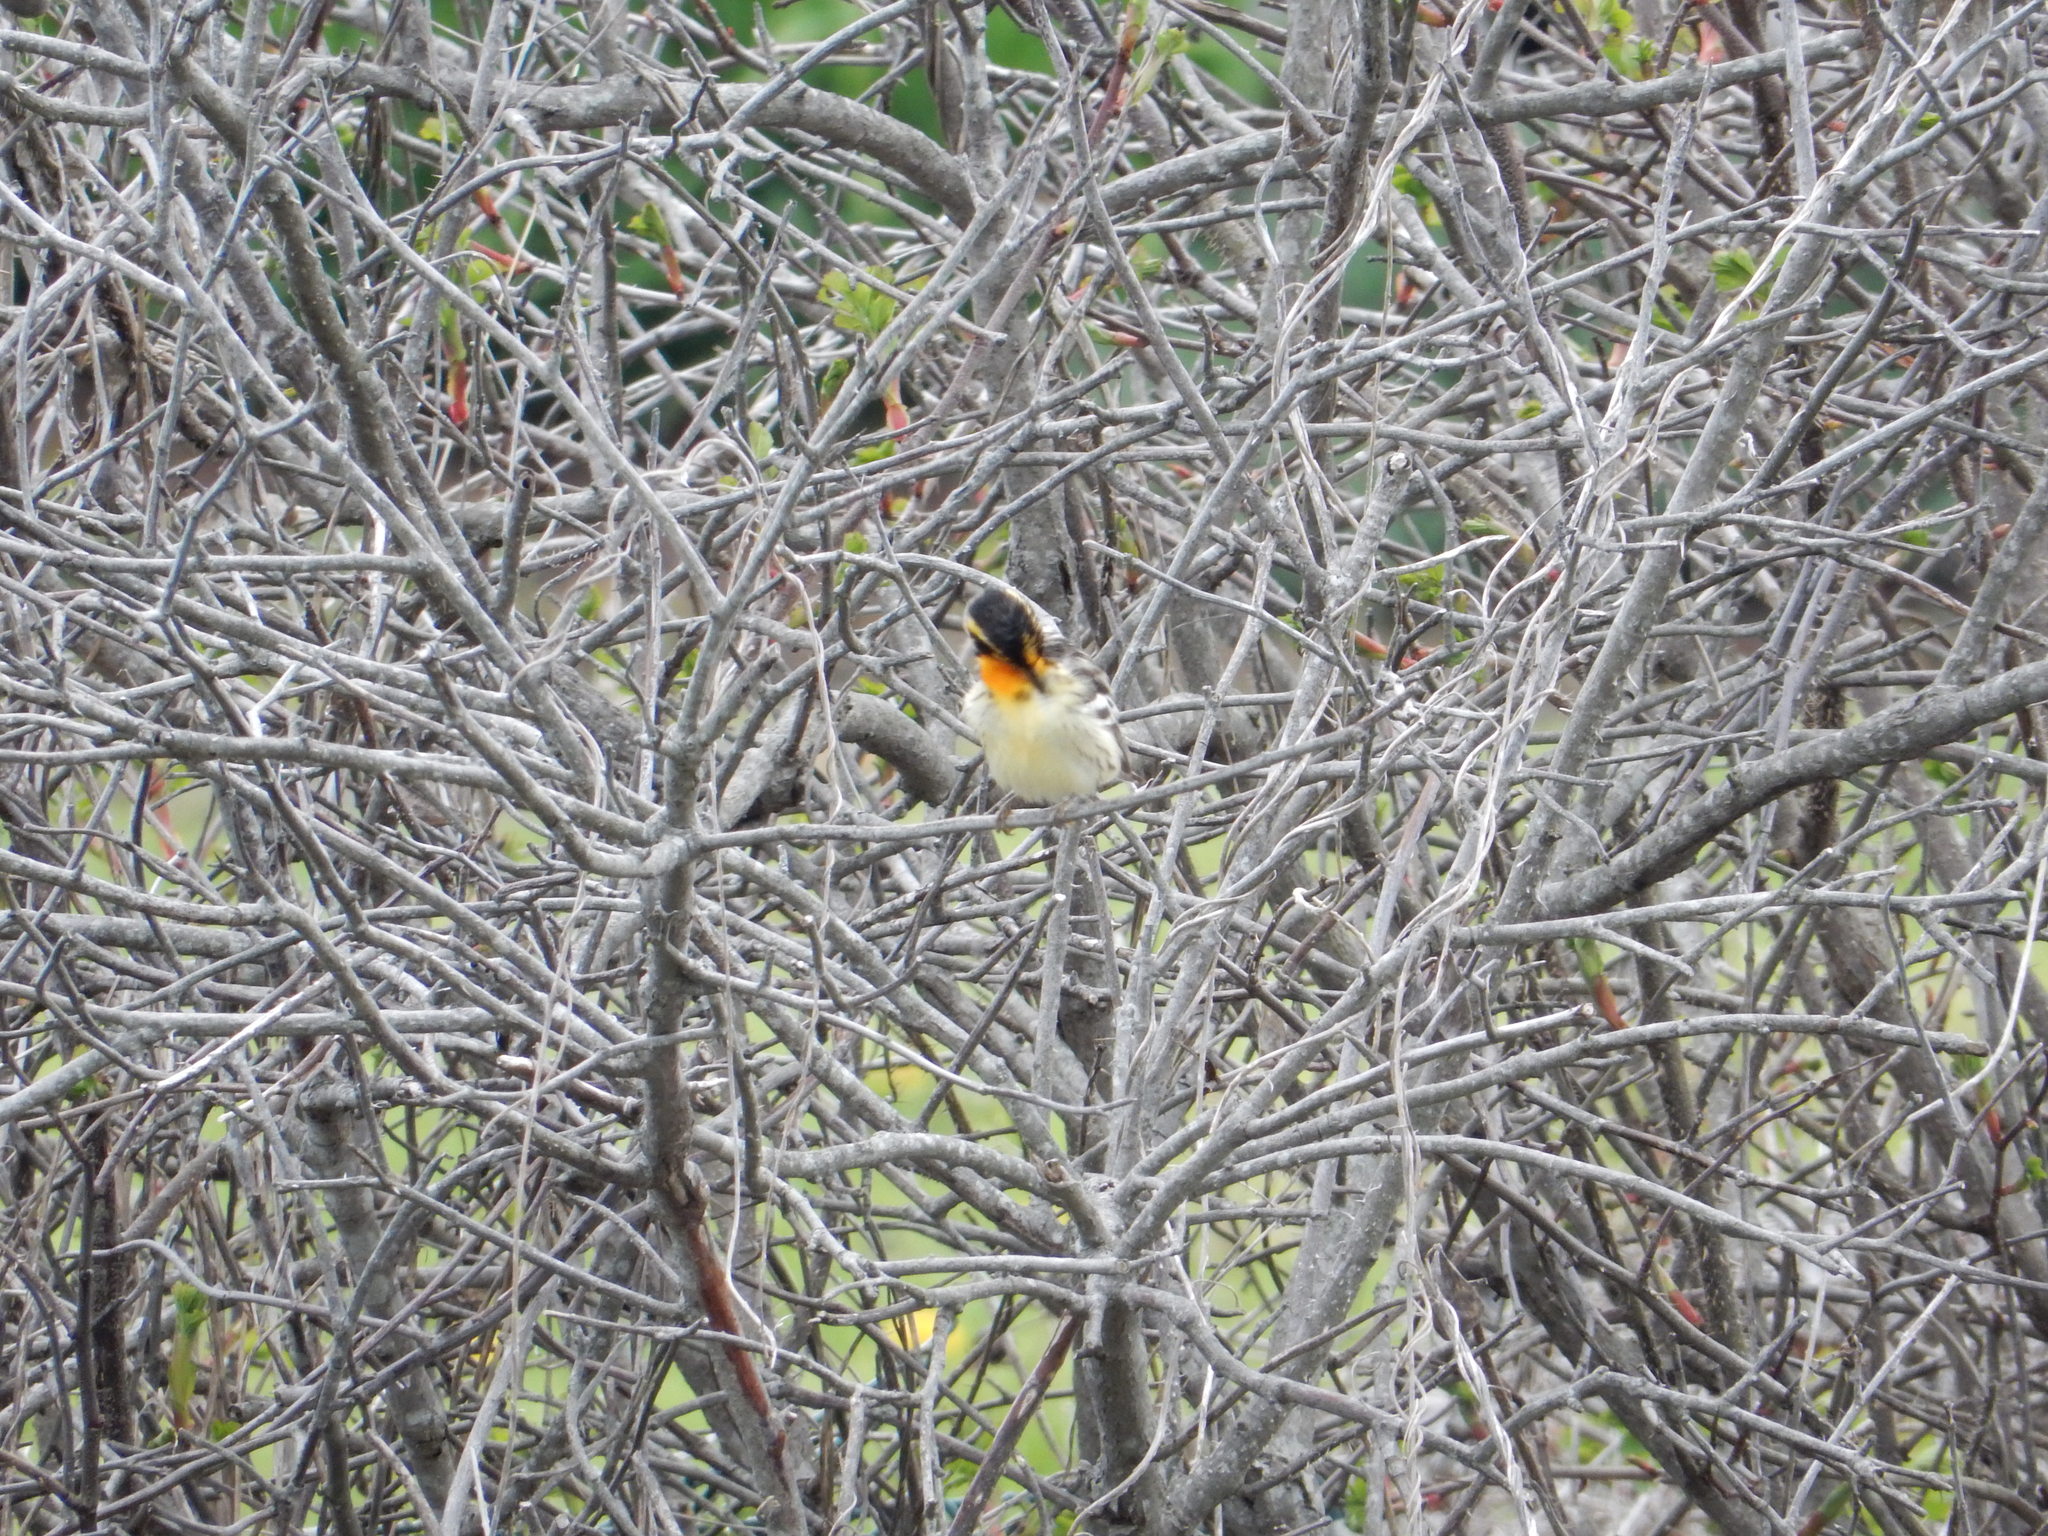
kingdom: Animalia
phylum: Chordata
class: Aves
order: Passeriformes
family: Parulidae
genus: Setophaga
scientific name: Setophaga fusca
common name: Blackburnian warbler
